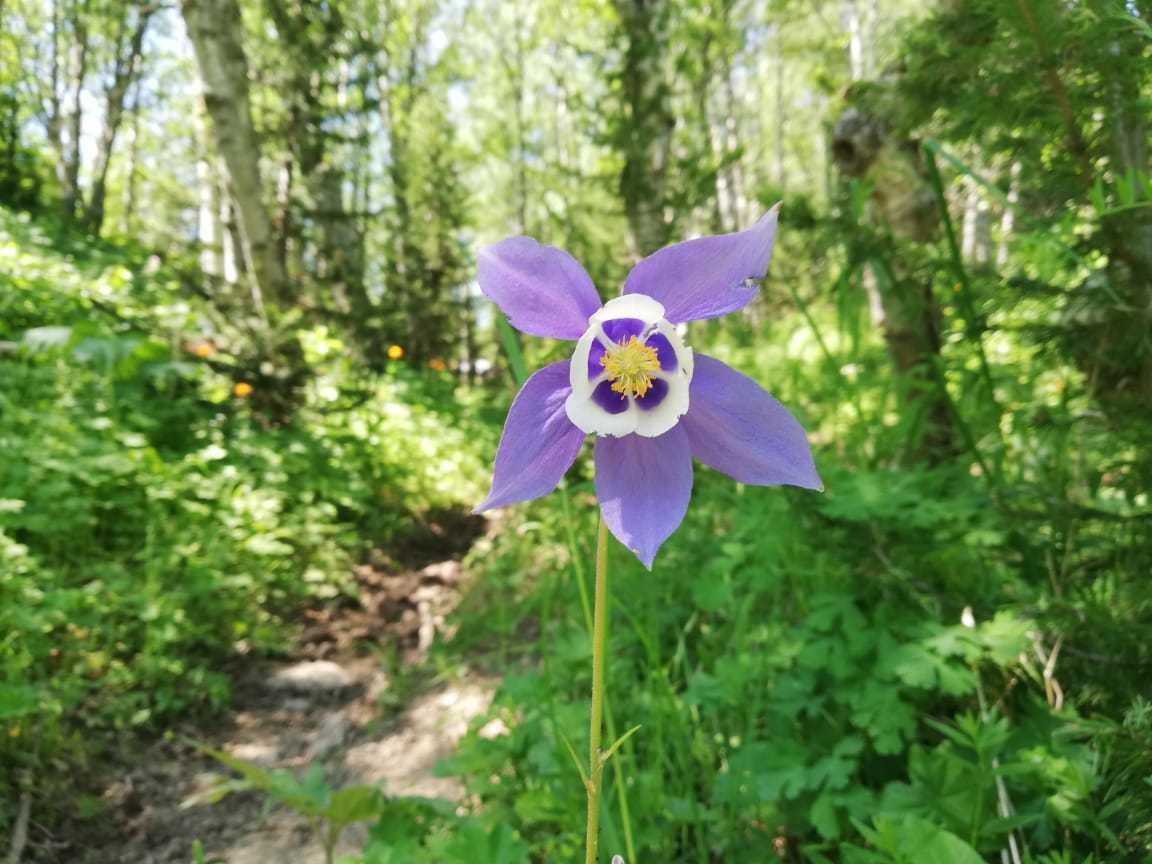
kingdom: Plantae
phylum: Tracheophyta
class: Magnoliopsida
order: Ranunculales
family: Ranunculaceae
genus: Aquilegia
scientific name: Aquilegia
